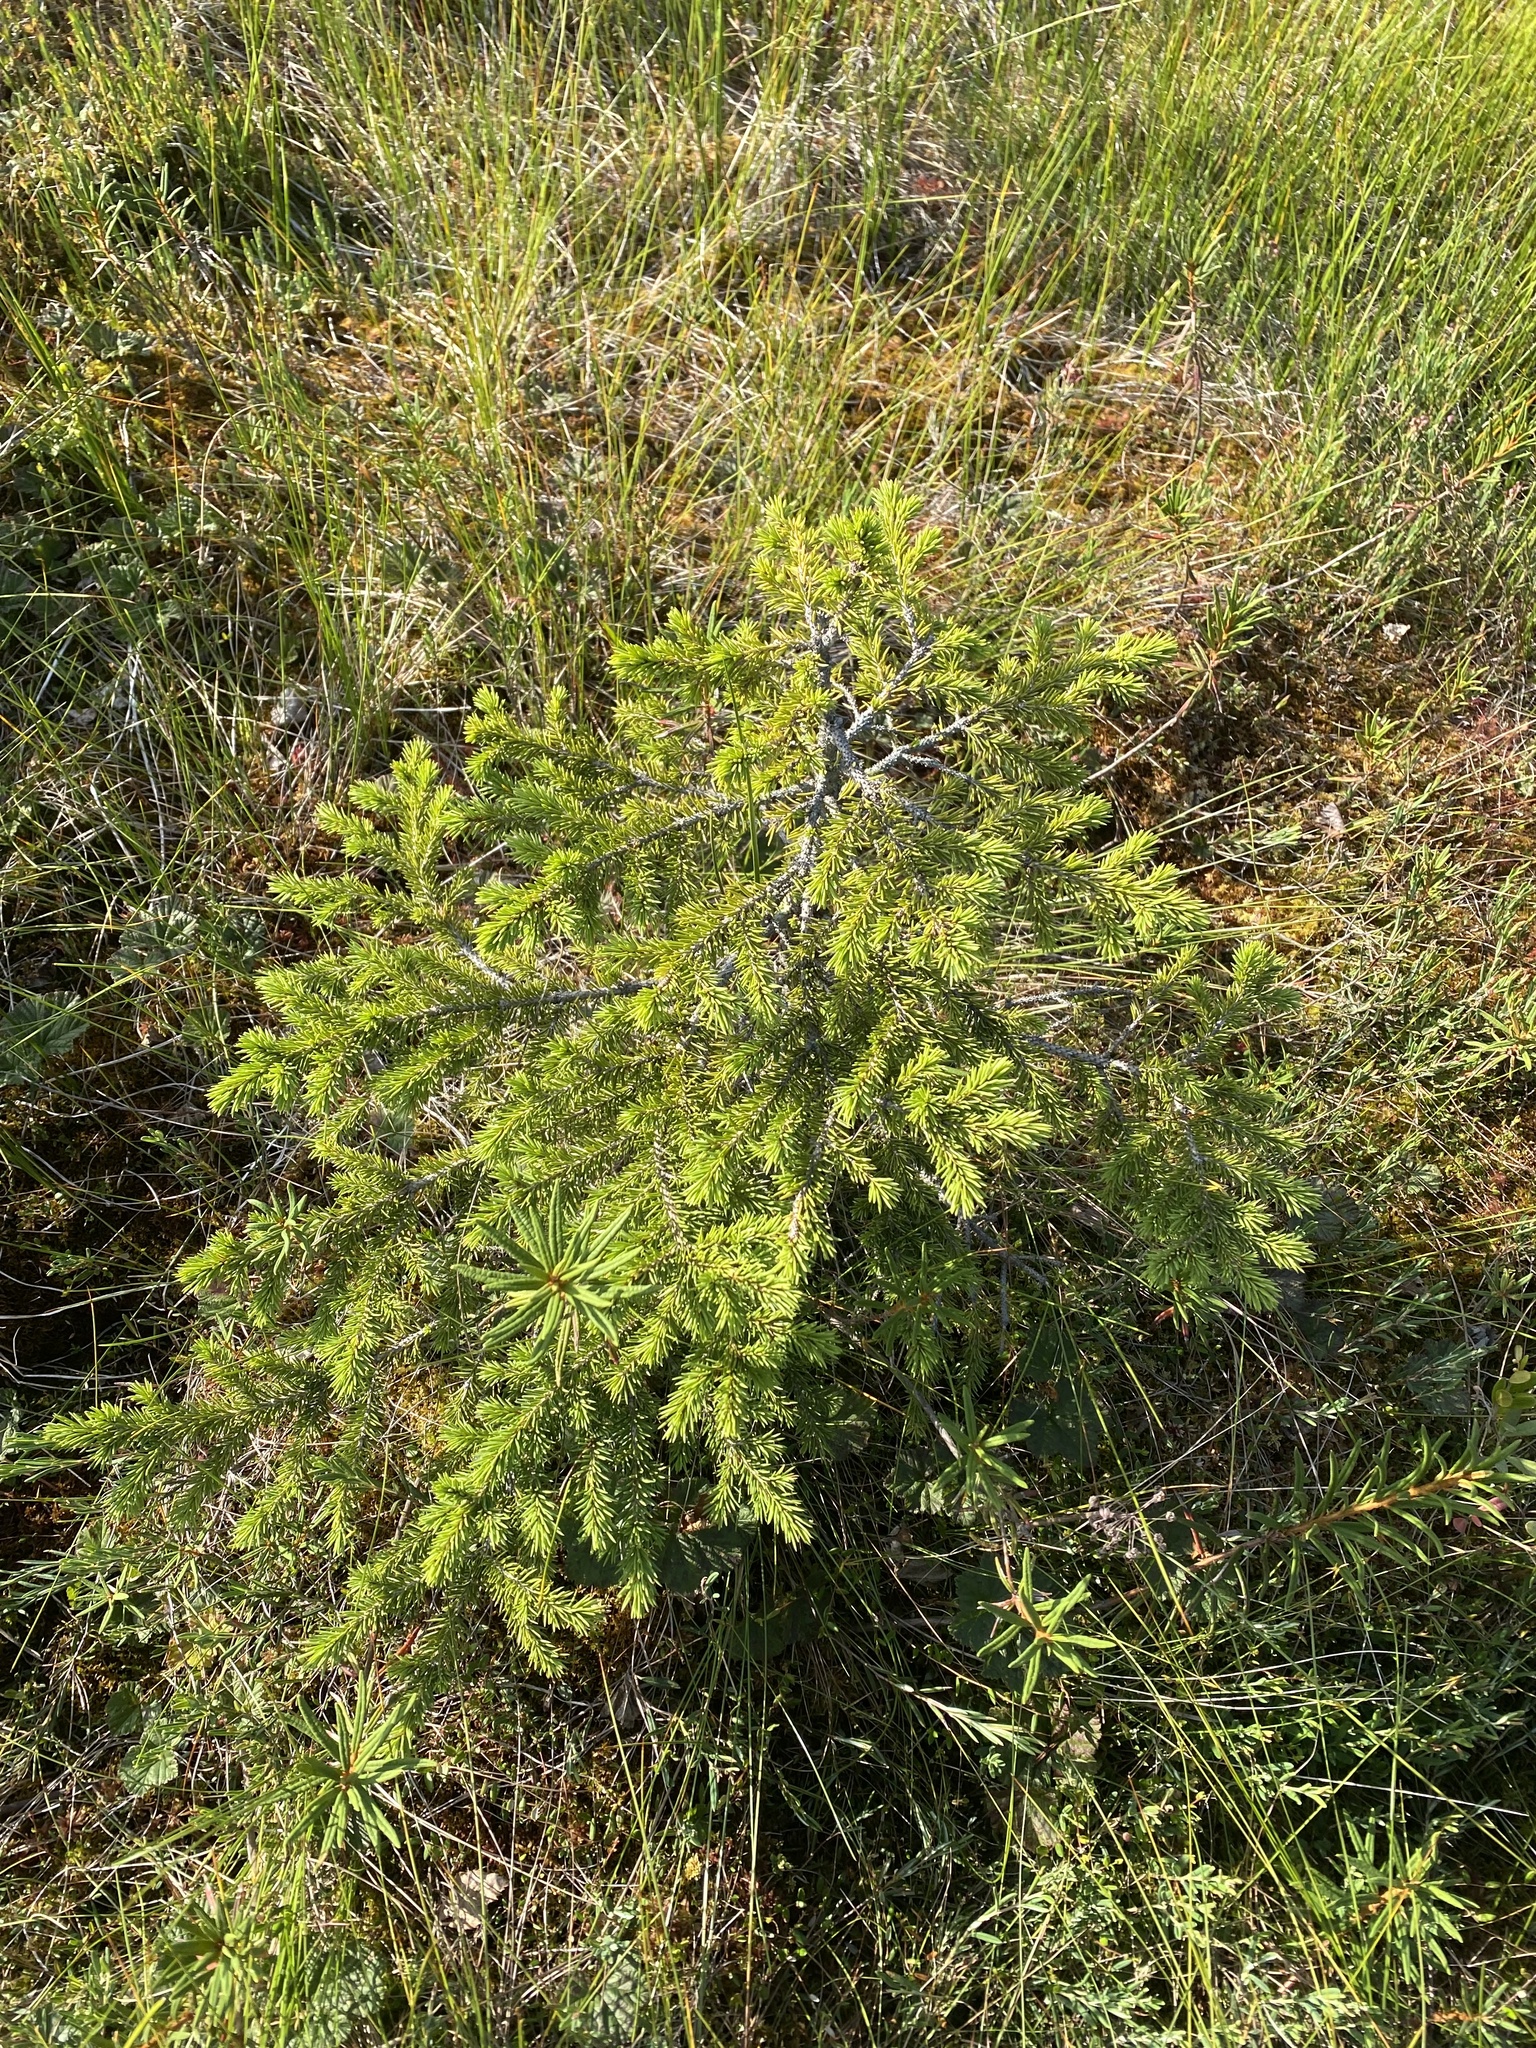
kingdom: Plantae
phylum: Tracheophyta
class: Pinopsida
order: Pinales
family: Pinaceae
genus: Picea
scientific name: Picea obovata
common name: Siberian spruce
